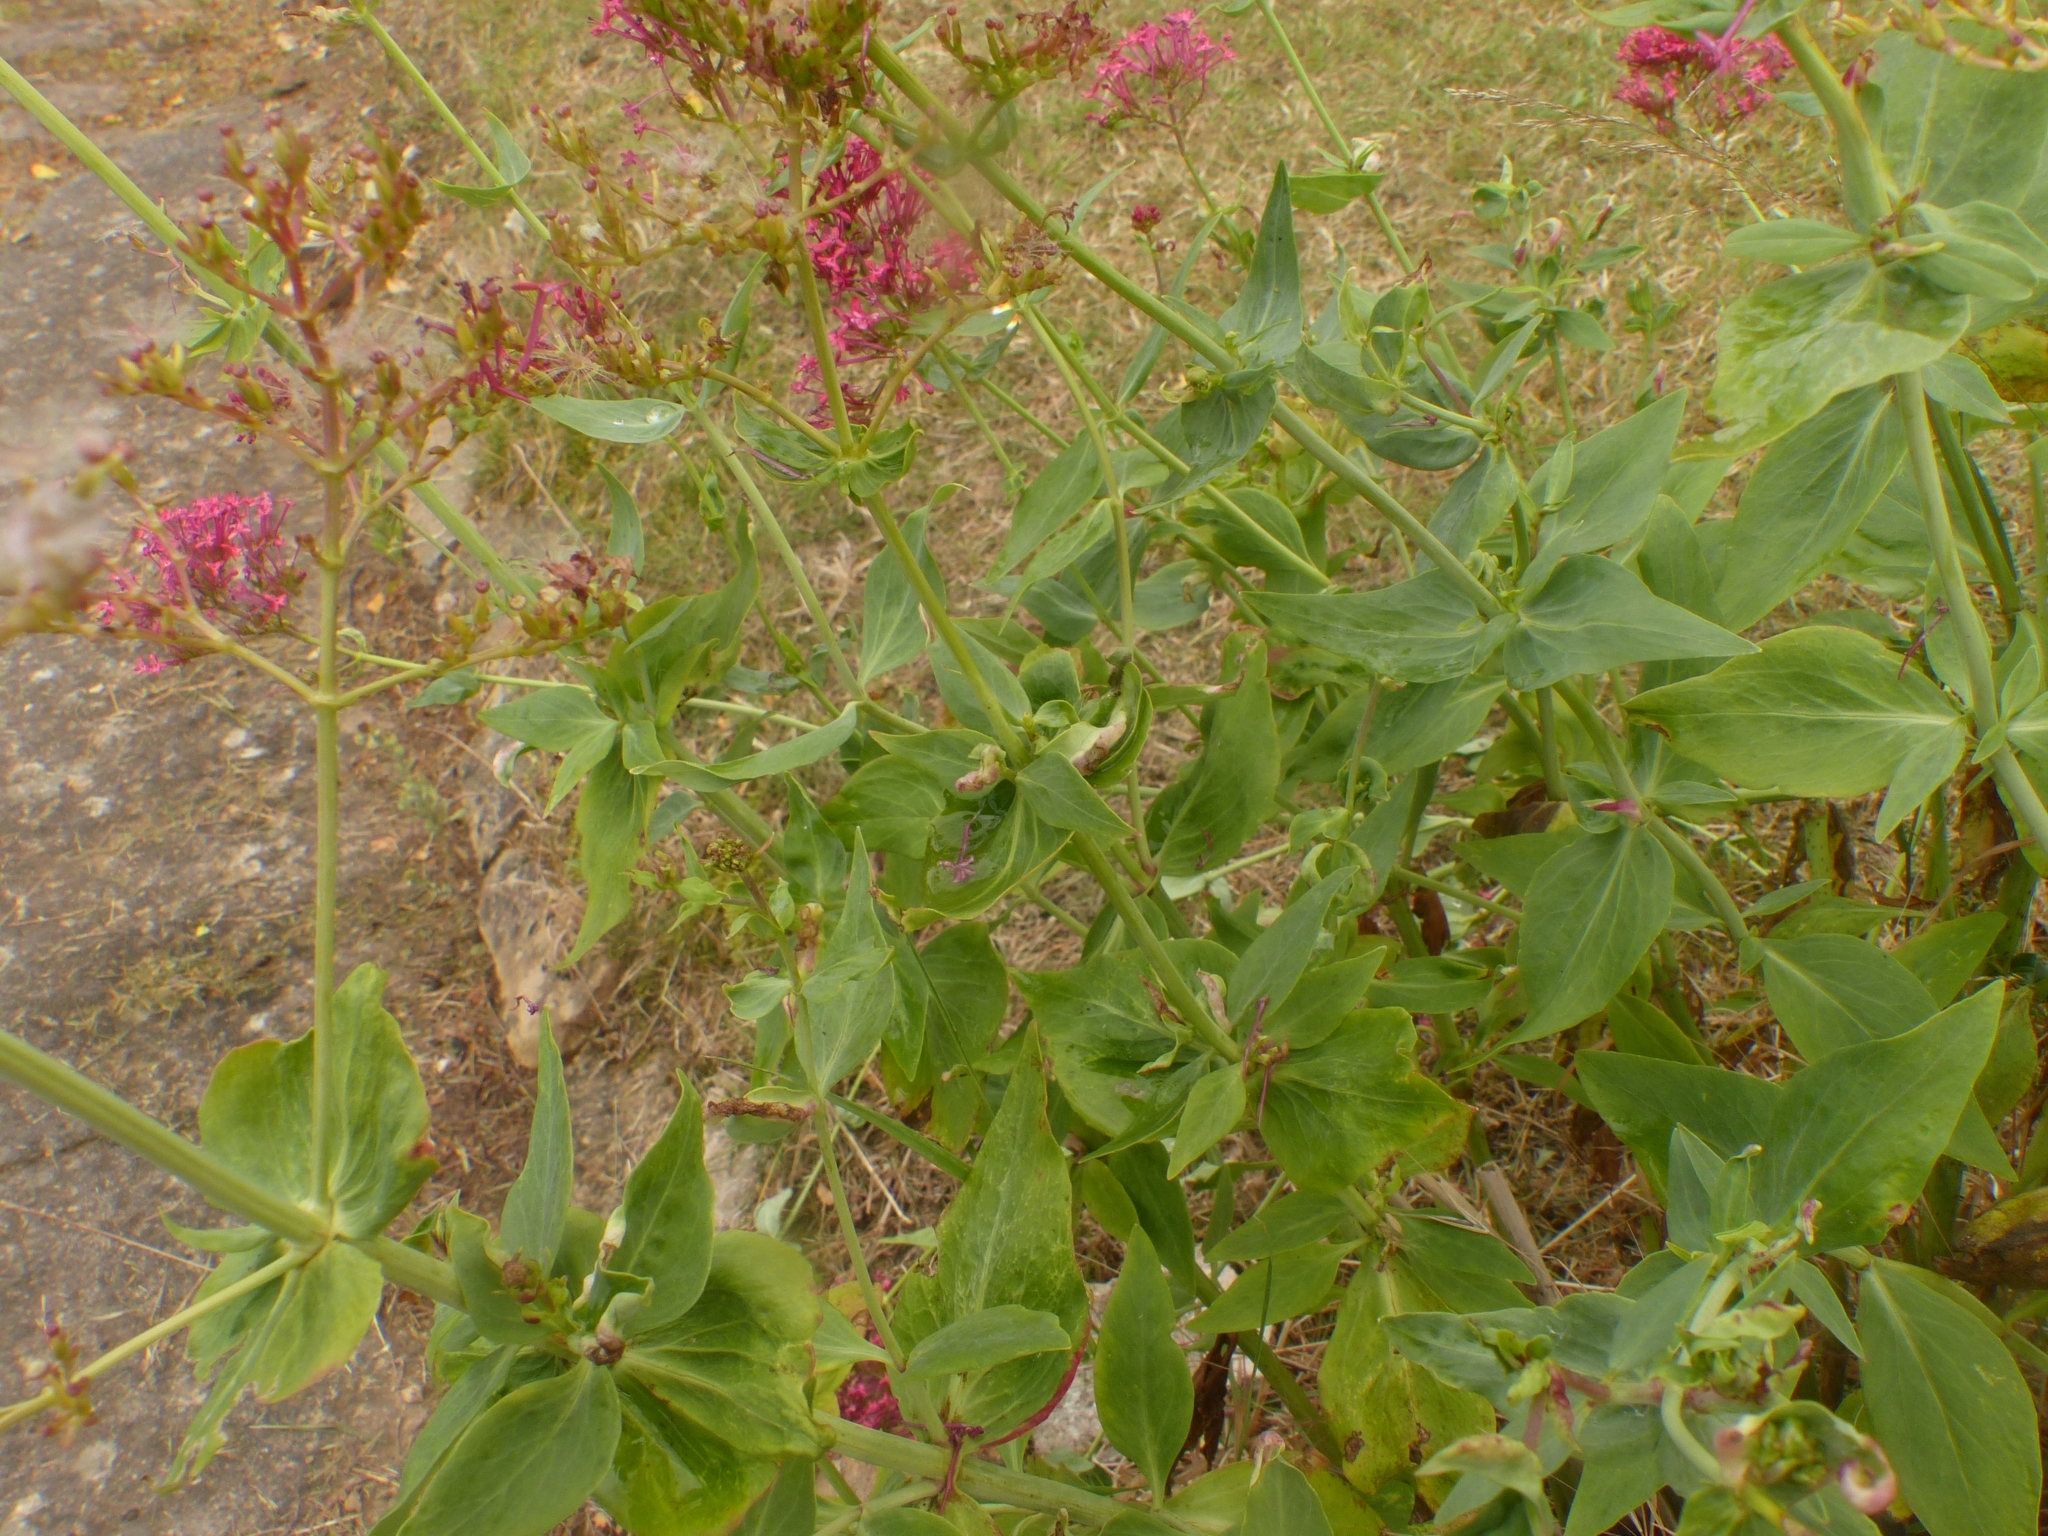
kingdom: Plantae
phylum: Tracheophyta
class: Magnoliopsida
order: Dipsacales
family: Caprifoliaceae
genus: Centranthus
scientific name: Centranthus ruber
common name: Red valerian
